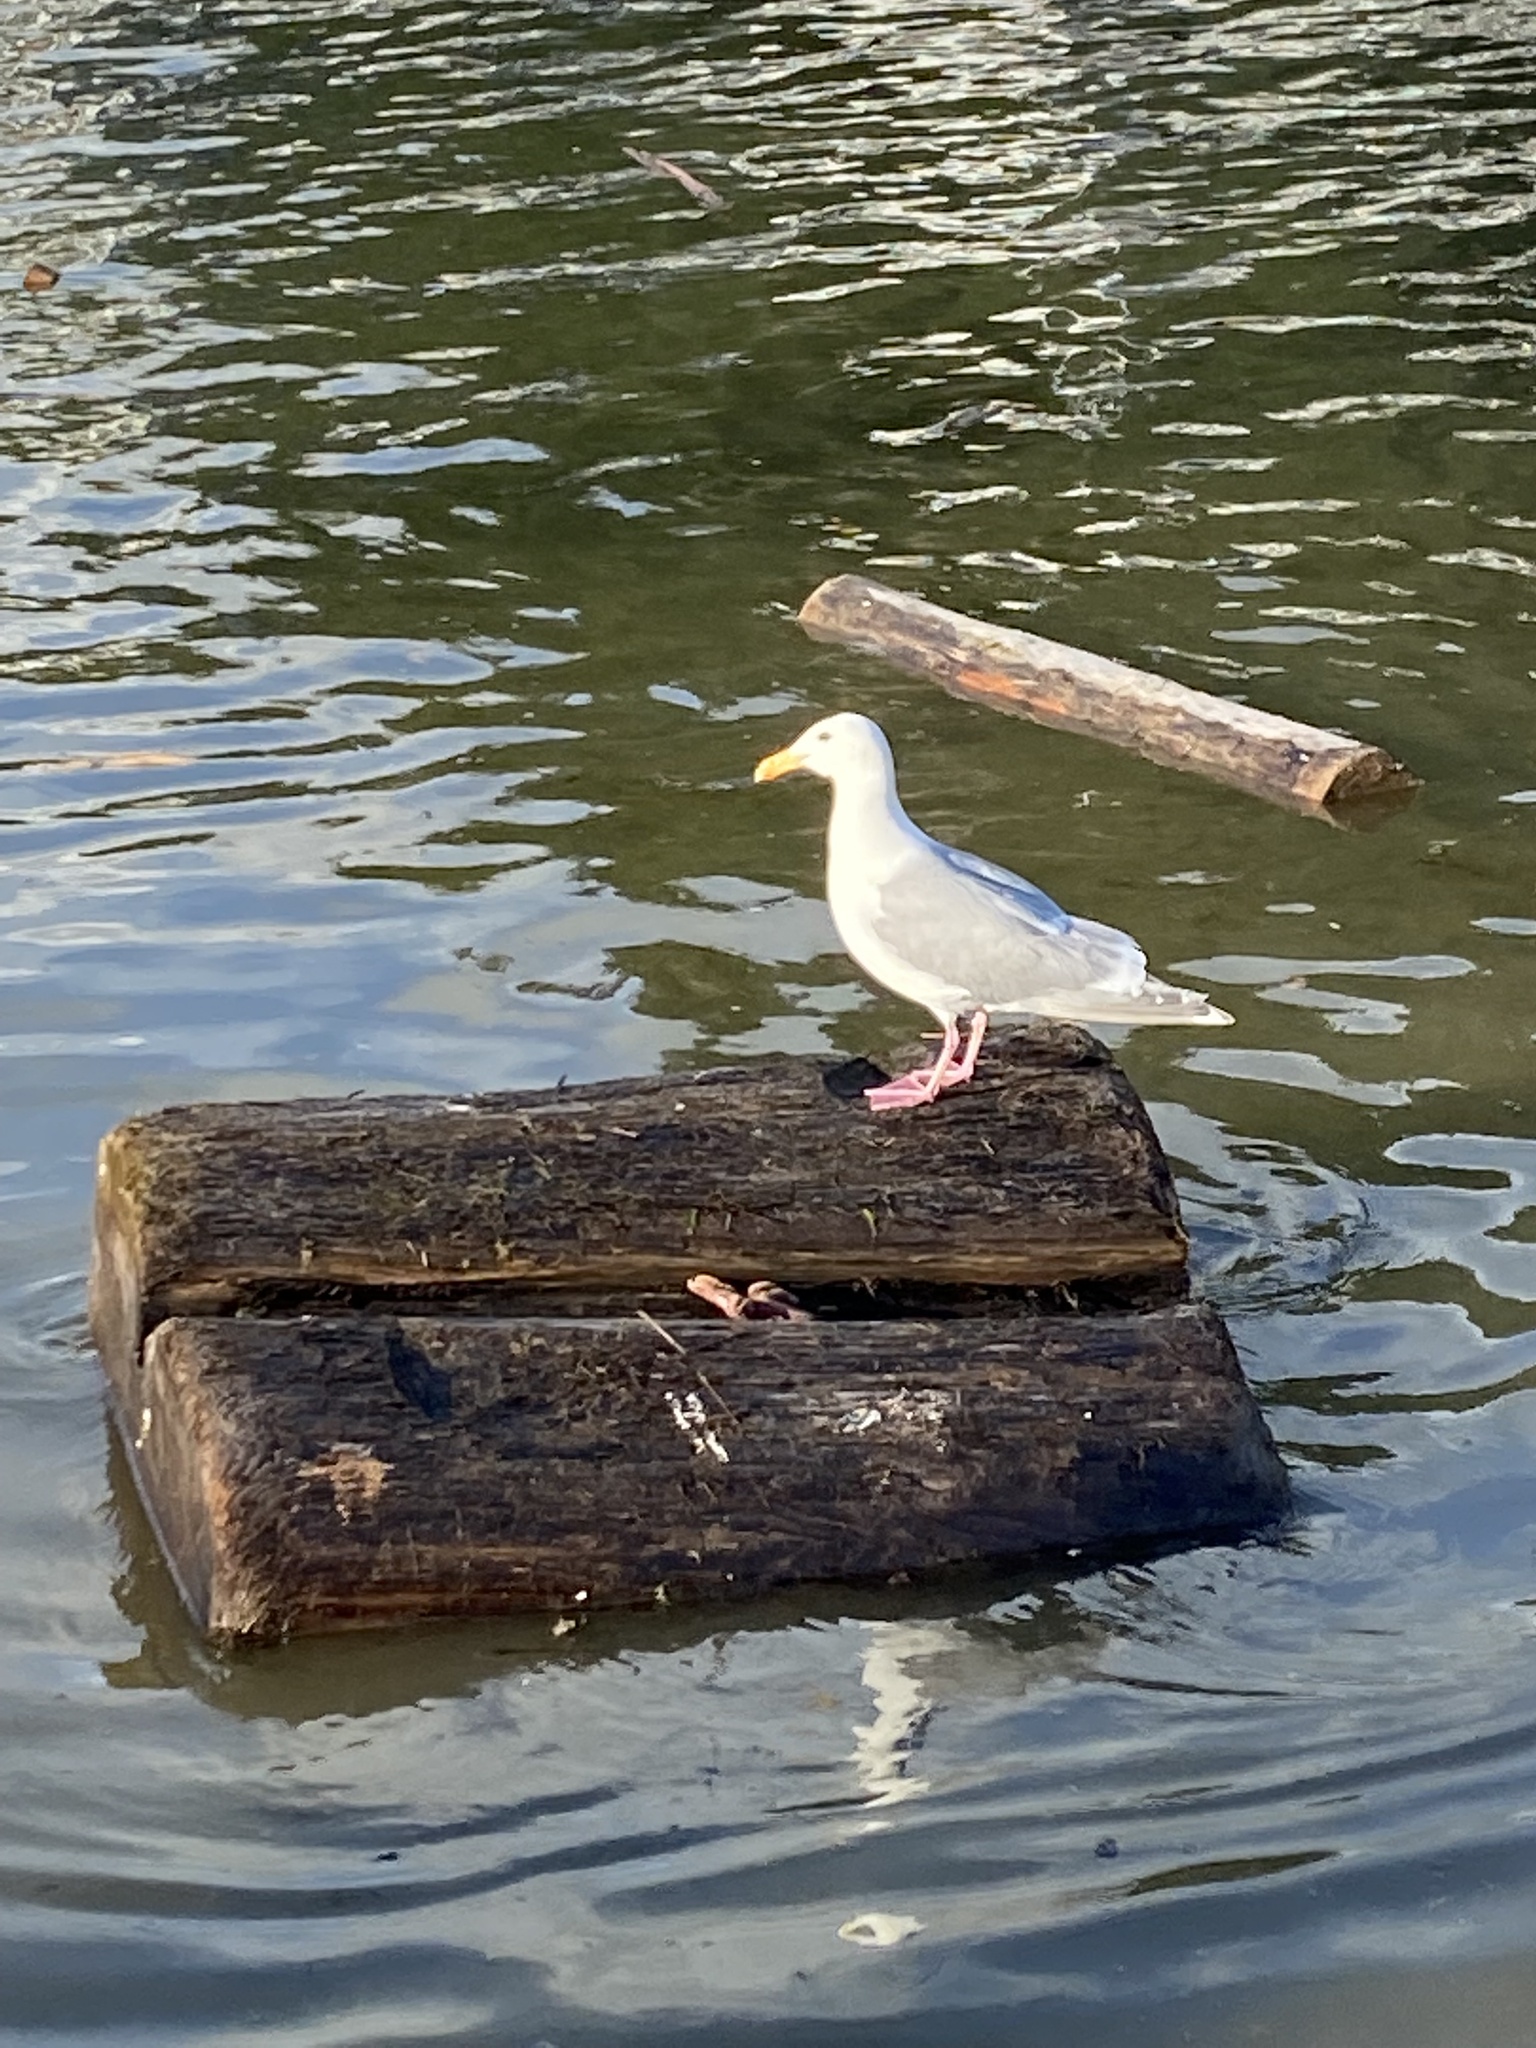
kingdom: Animalia
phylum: Chordata
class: Aves
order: Charadriiformes
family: Laridae
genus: Larus
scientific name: Larus glaucescens
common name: Glaucous-winged gull
